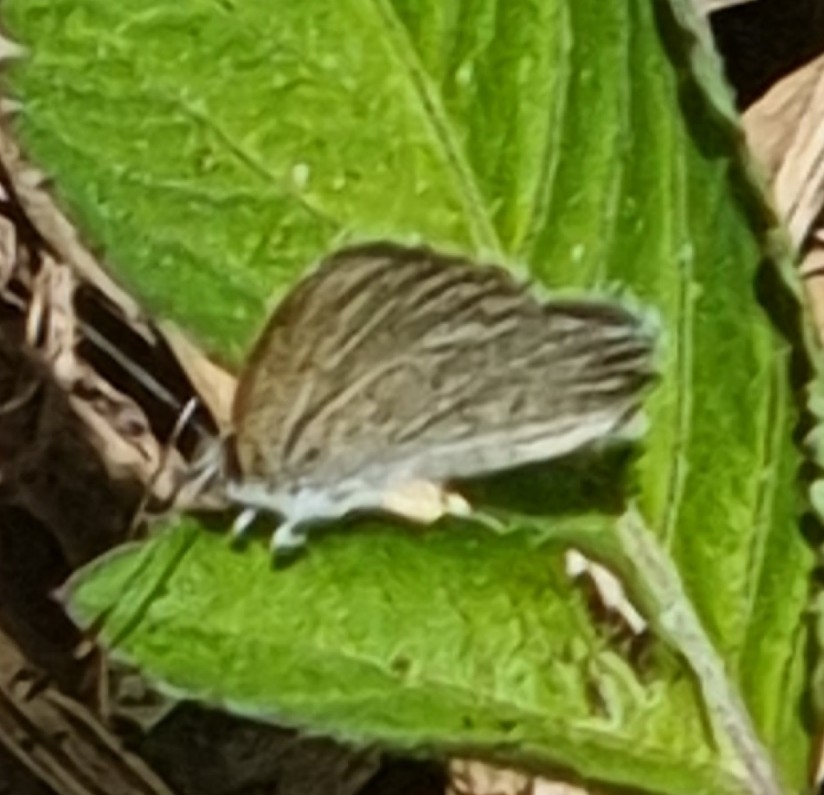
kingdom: Animalia
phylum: Arthropoda
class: Insecta
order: Lepidoptera
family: Lycaenidae
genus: Zizina
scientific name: Zizina otis
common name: Lesser grass blue
